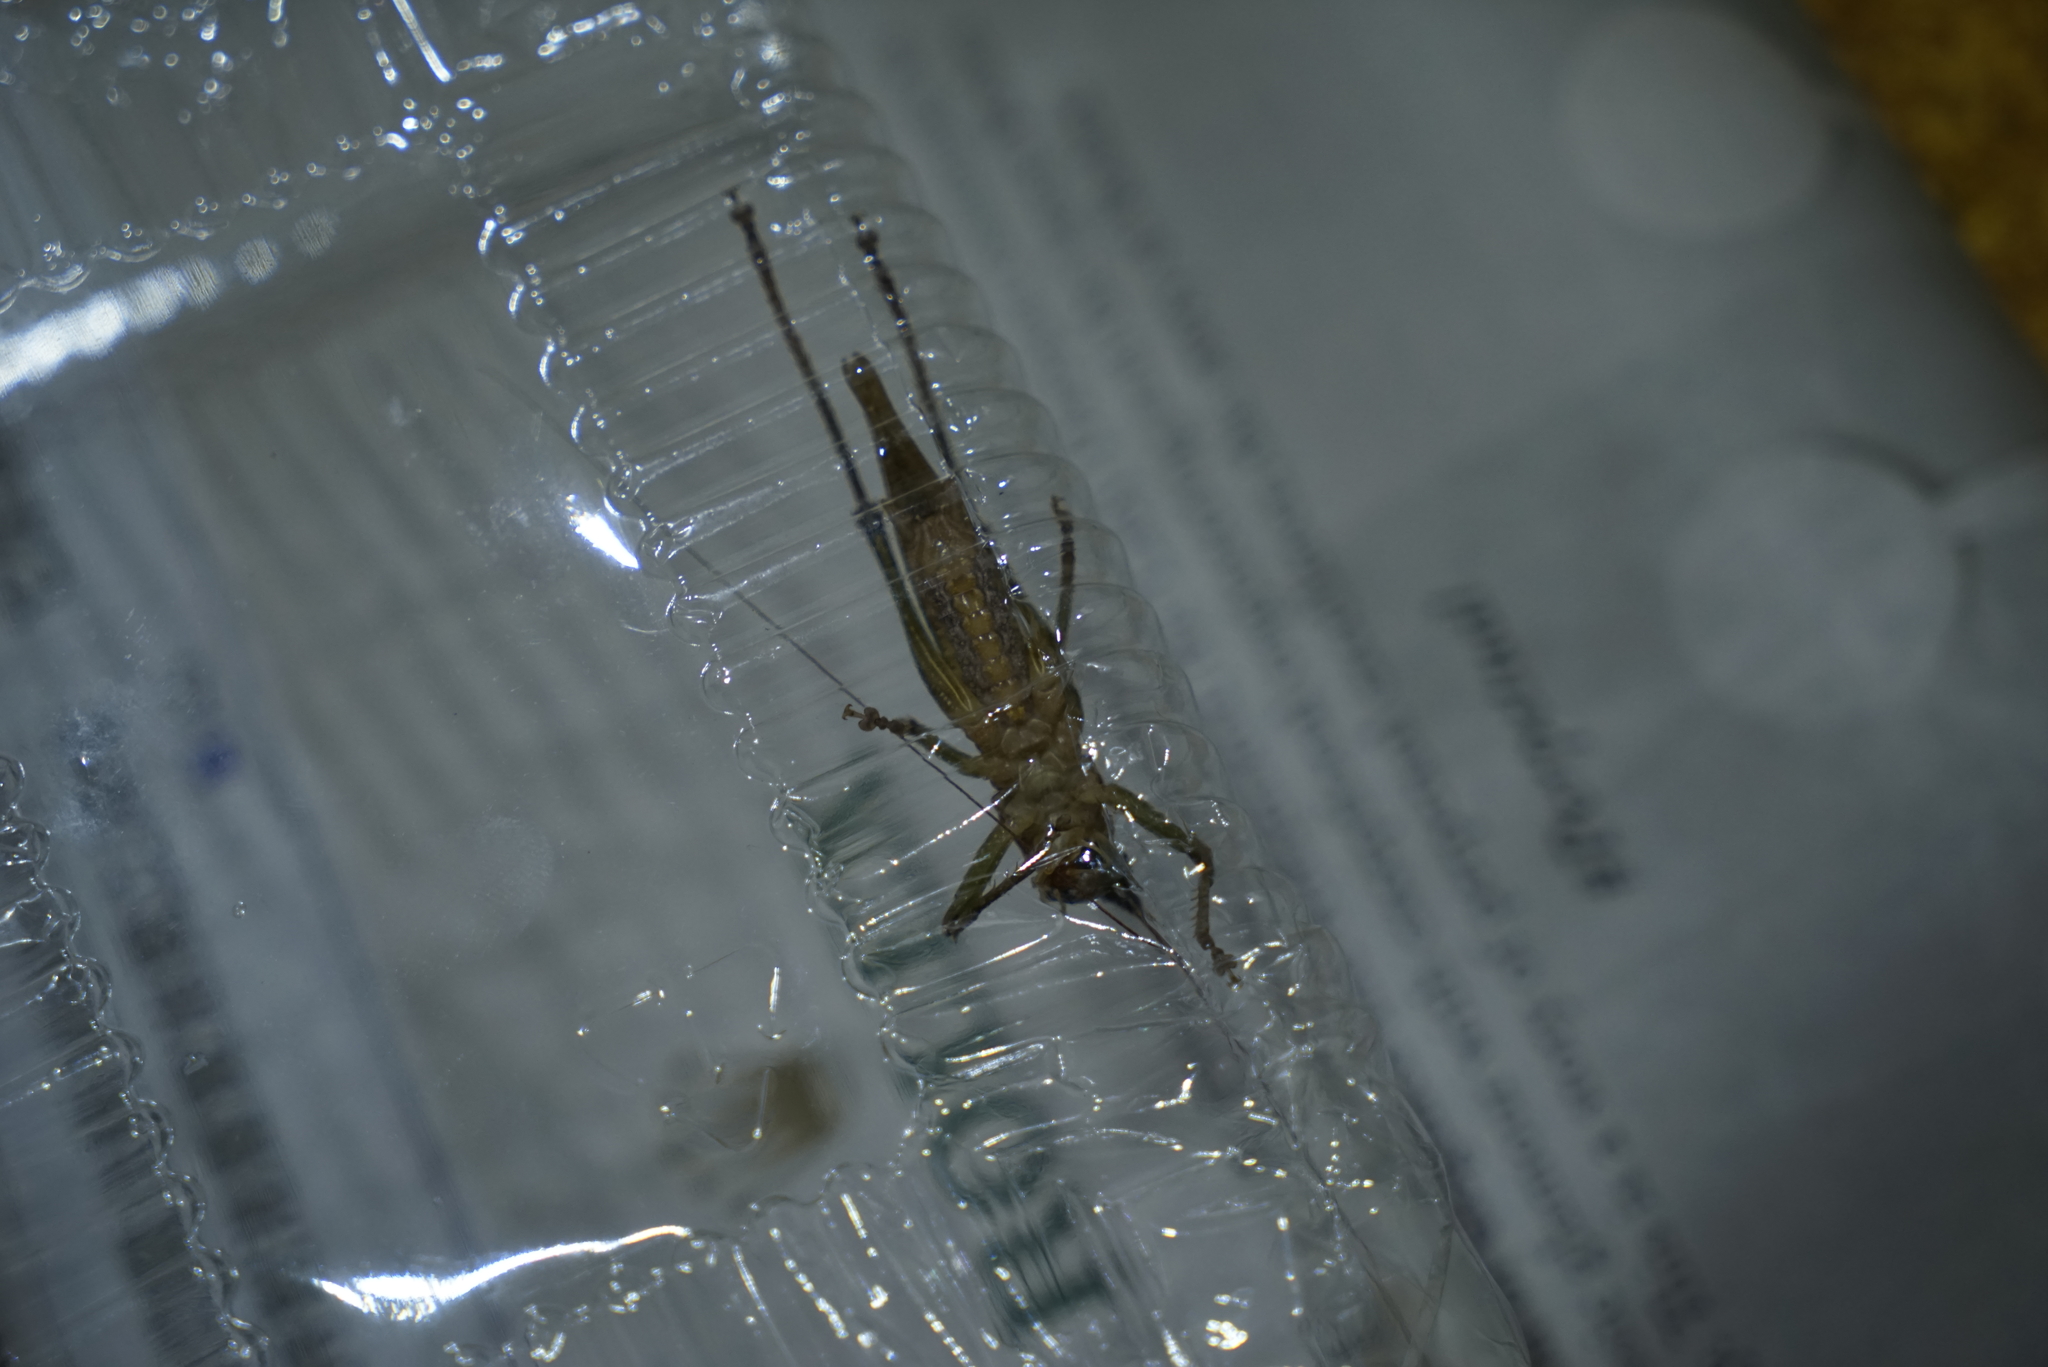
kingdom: Animalia
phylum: Arthropoda
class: Insecta
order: Orthoptera
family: Tettigoniidae
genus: Austrosalomona
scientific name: Austrosalomona falcata
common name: Olive-green coastal katydid
